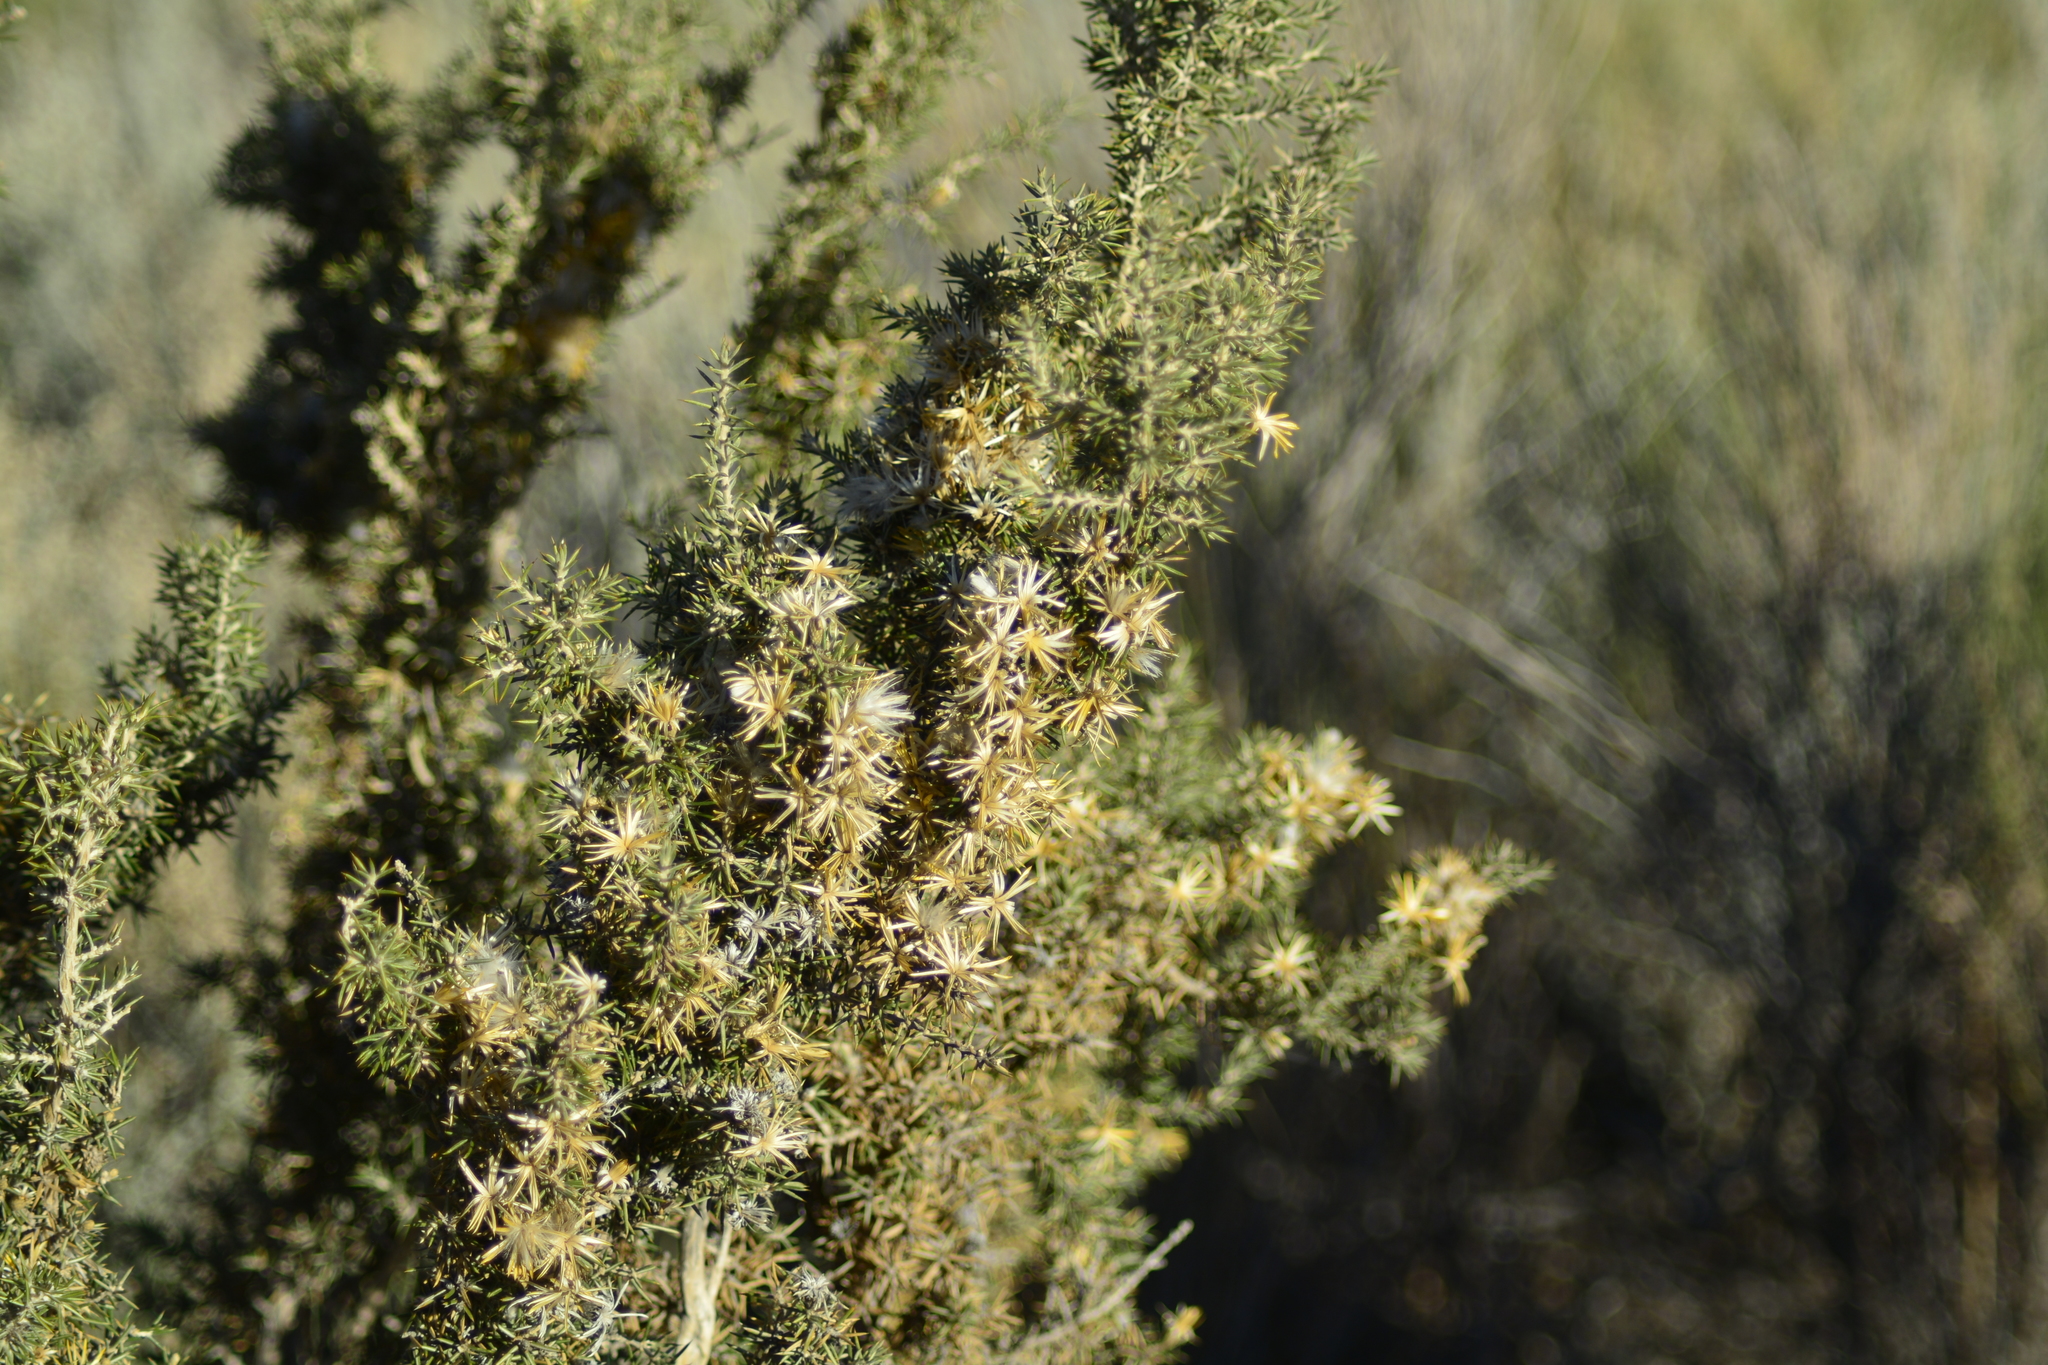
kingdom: Plantae
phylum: Tracheophyta
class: Magnoliopsida
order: Asterales
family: Asteraceae
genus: Chuquiraga
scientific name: Chuquiraga erinacea
